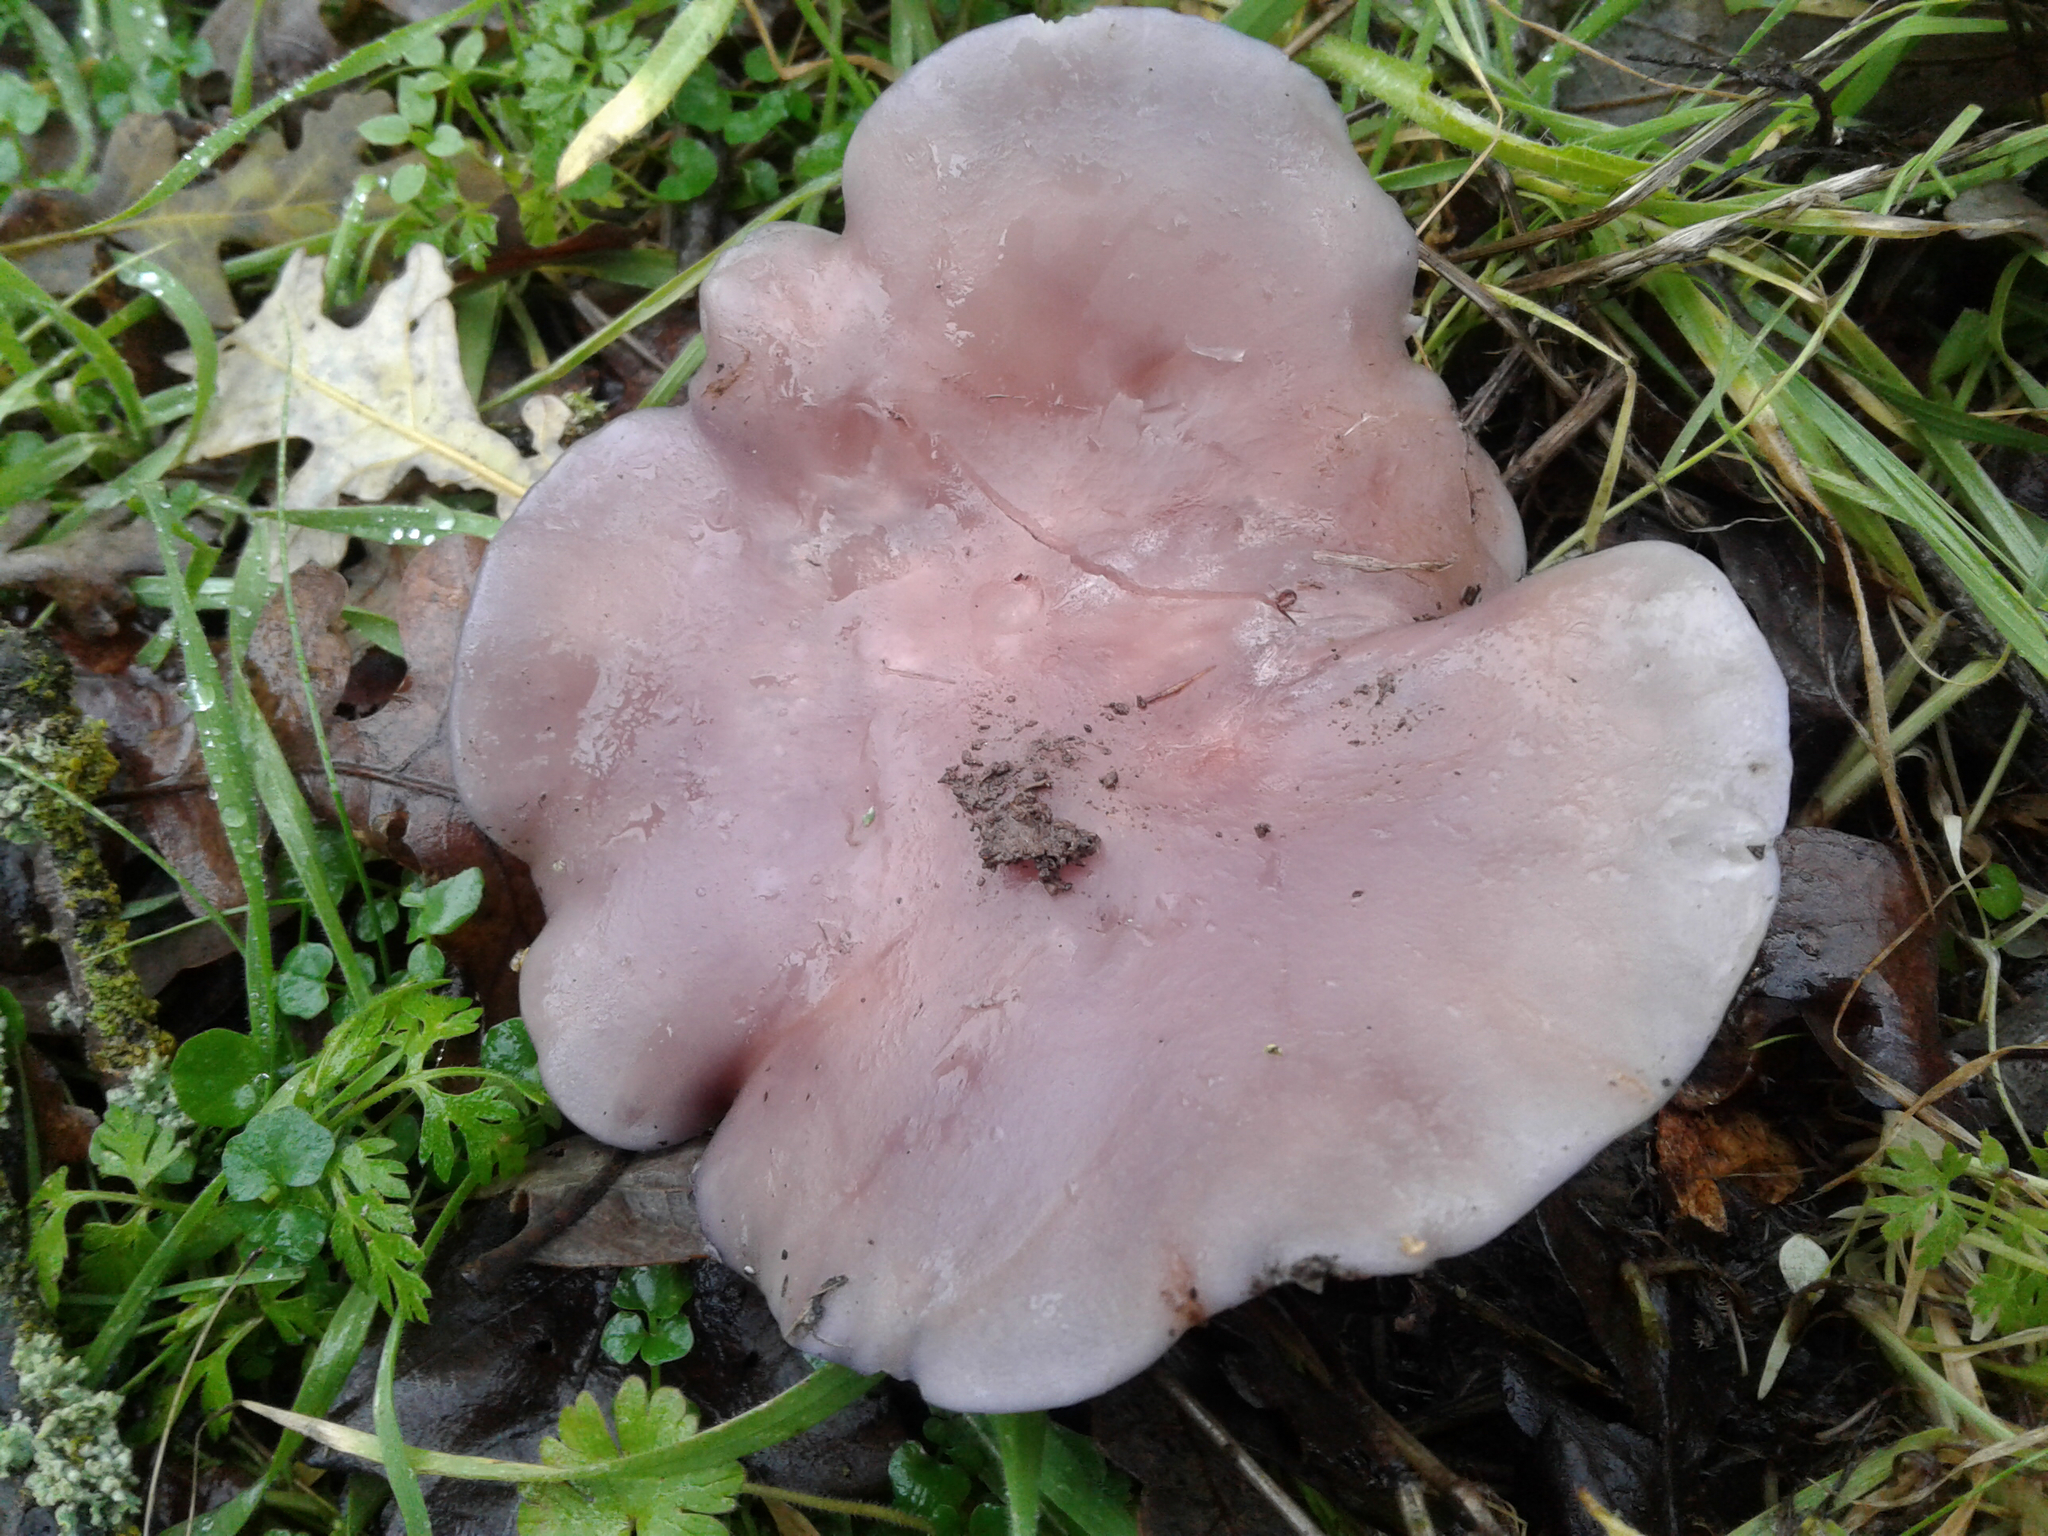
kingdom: Fungi
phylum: Basidiomycota
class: Agaricomycetes
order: Agaricales
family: Tricholomataceae
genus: Collybia
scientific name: Collybia
